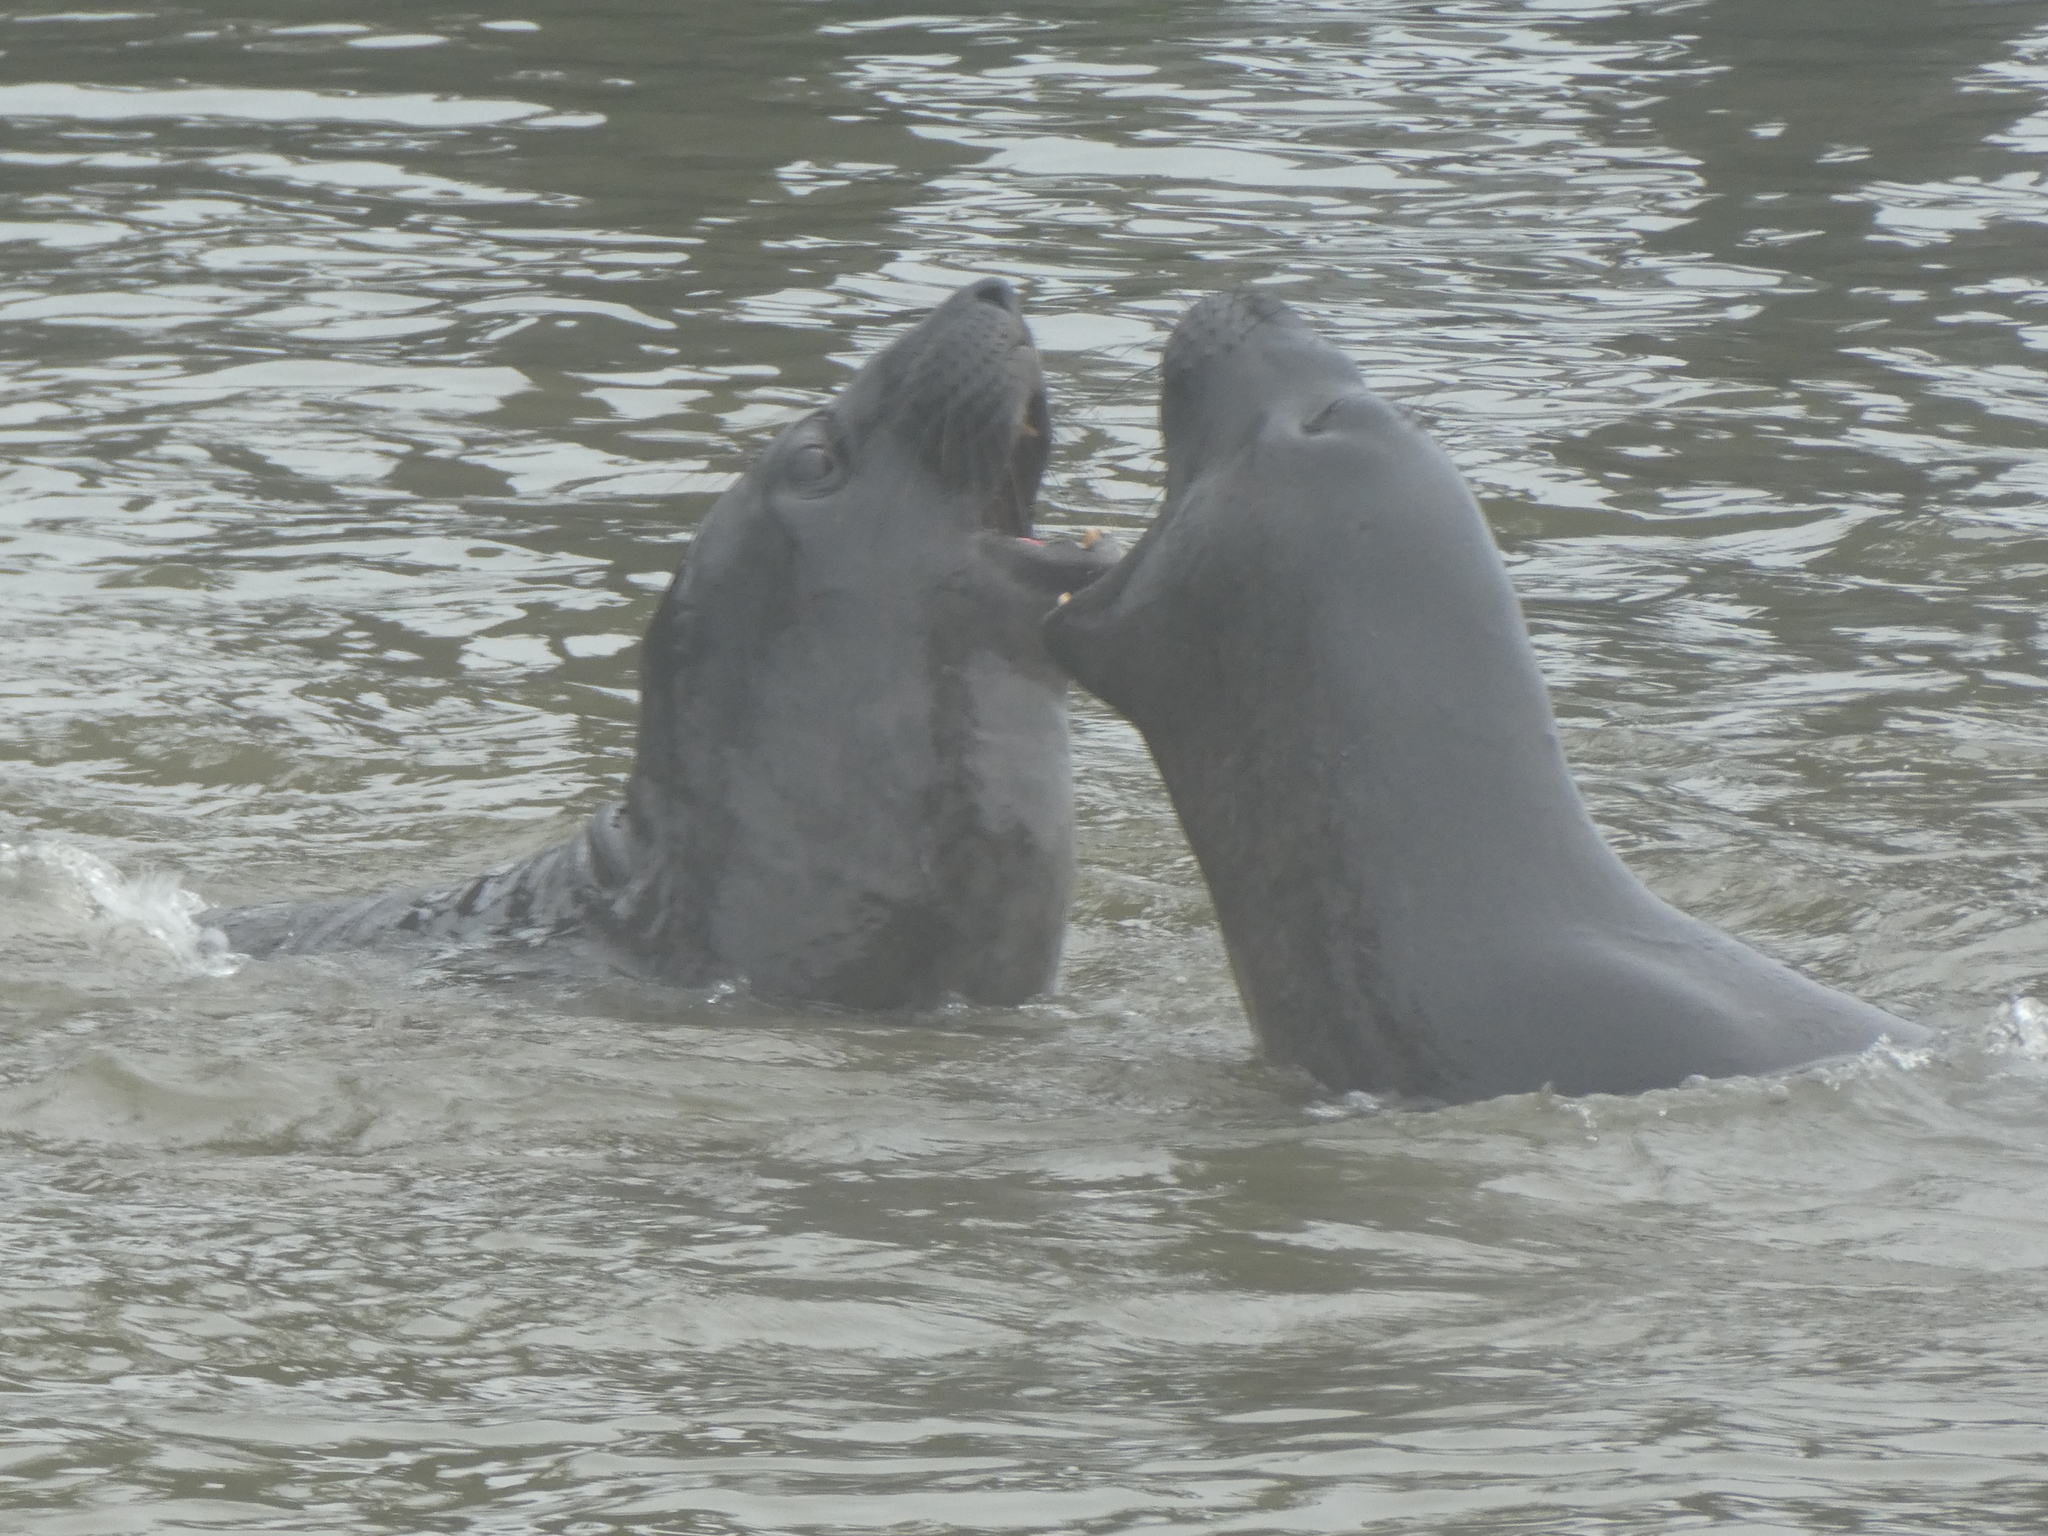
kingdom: Animalia
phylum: Chordata
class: Mammalia
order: Carnivora
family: Phocidae
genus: Mirounga
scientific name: Mirounga angustirostris
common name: Northern elephant seal
